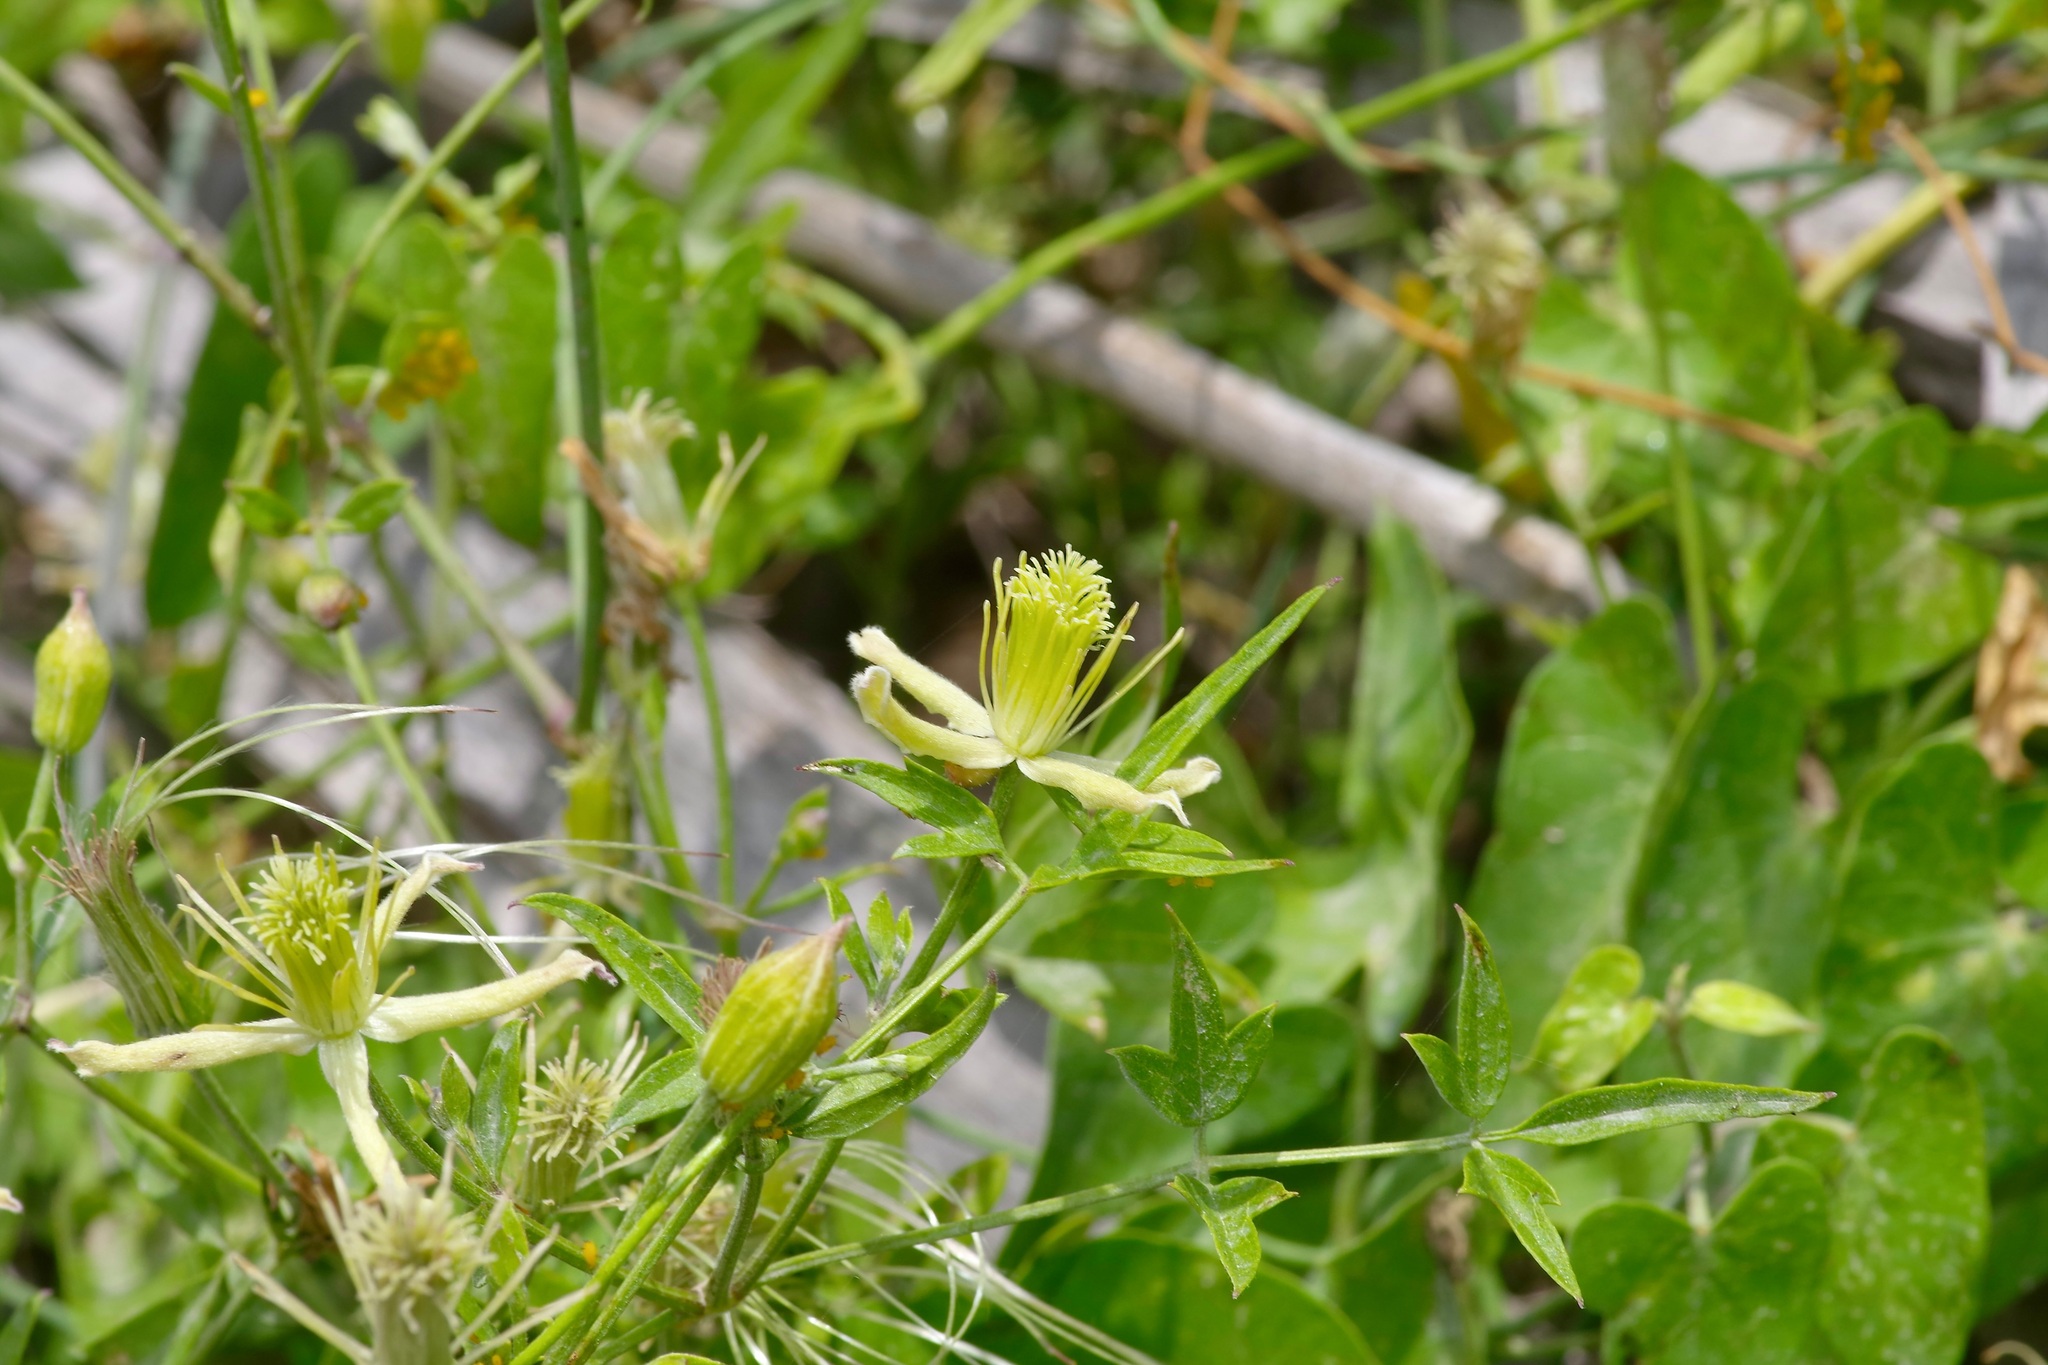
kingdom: Plantae
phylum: Tracheophyta
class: Magnoliopsida
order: Ranunculales
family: Ranunculaceae
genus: Clematis
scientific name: Clematis drummondii
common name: Texas virgin's bower
